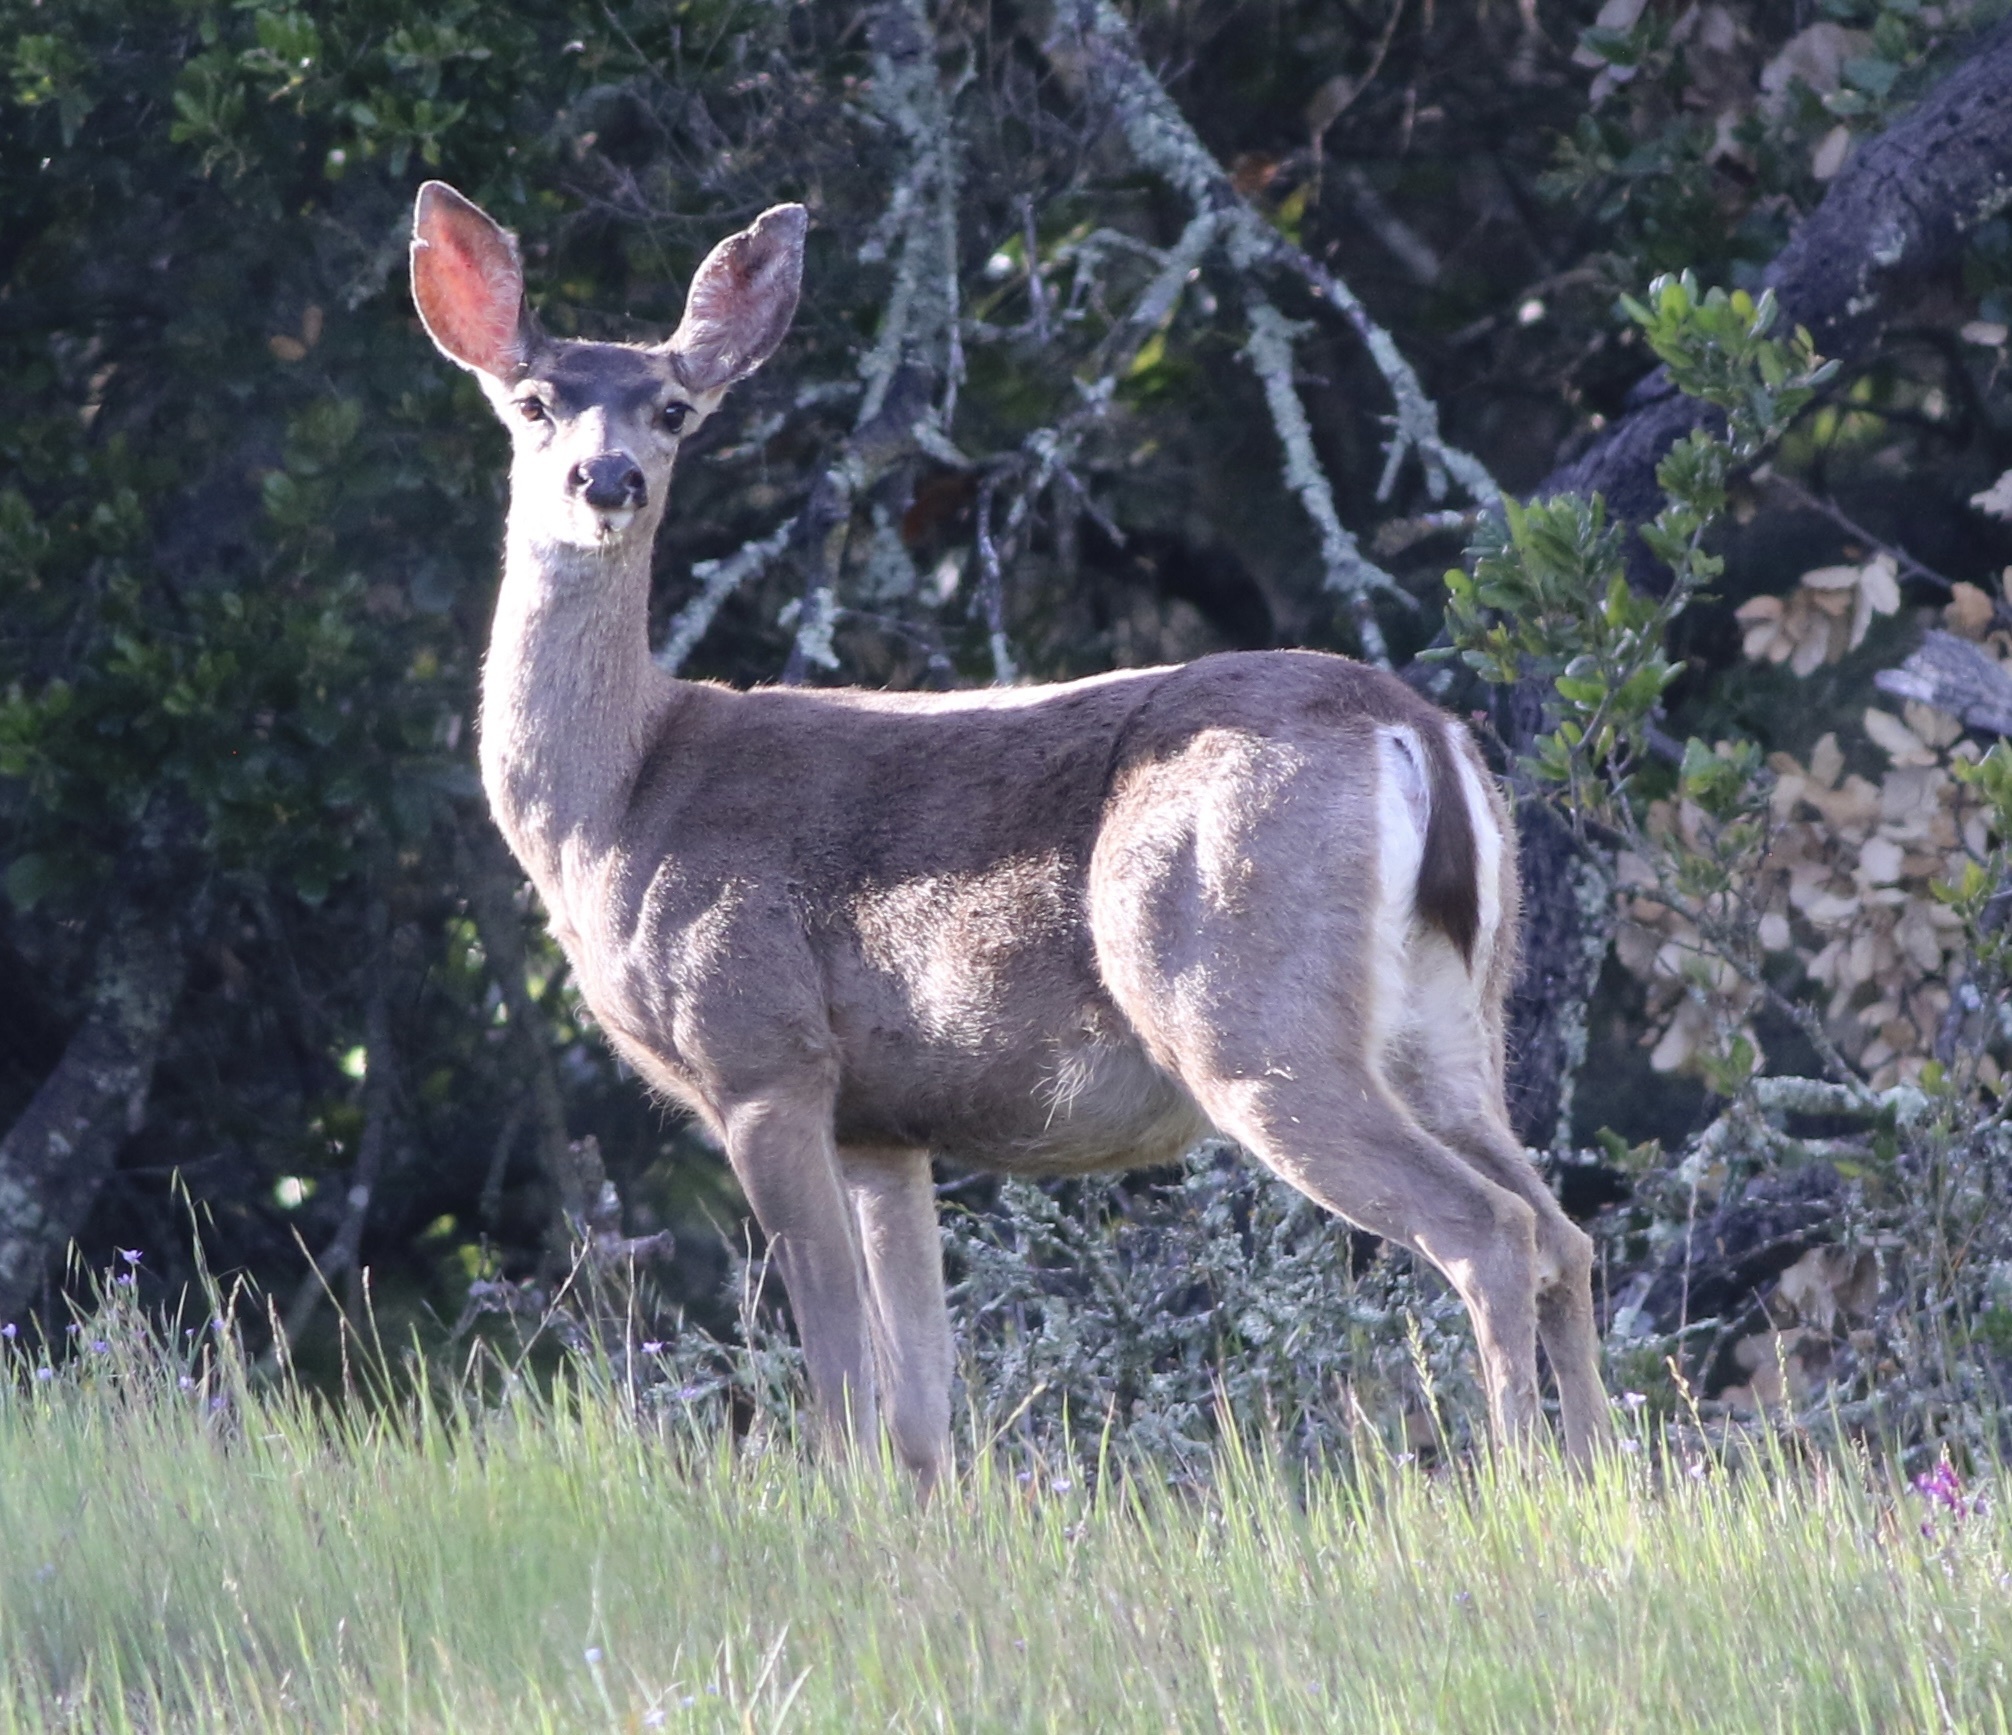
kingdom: Animalia
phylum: Chordata
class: Mammalia
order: Artiodactyla
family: Cervidae
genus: Odocoileus
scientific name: Odocoileus hemionus
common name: Mule deer
